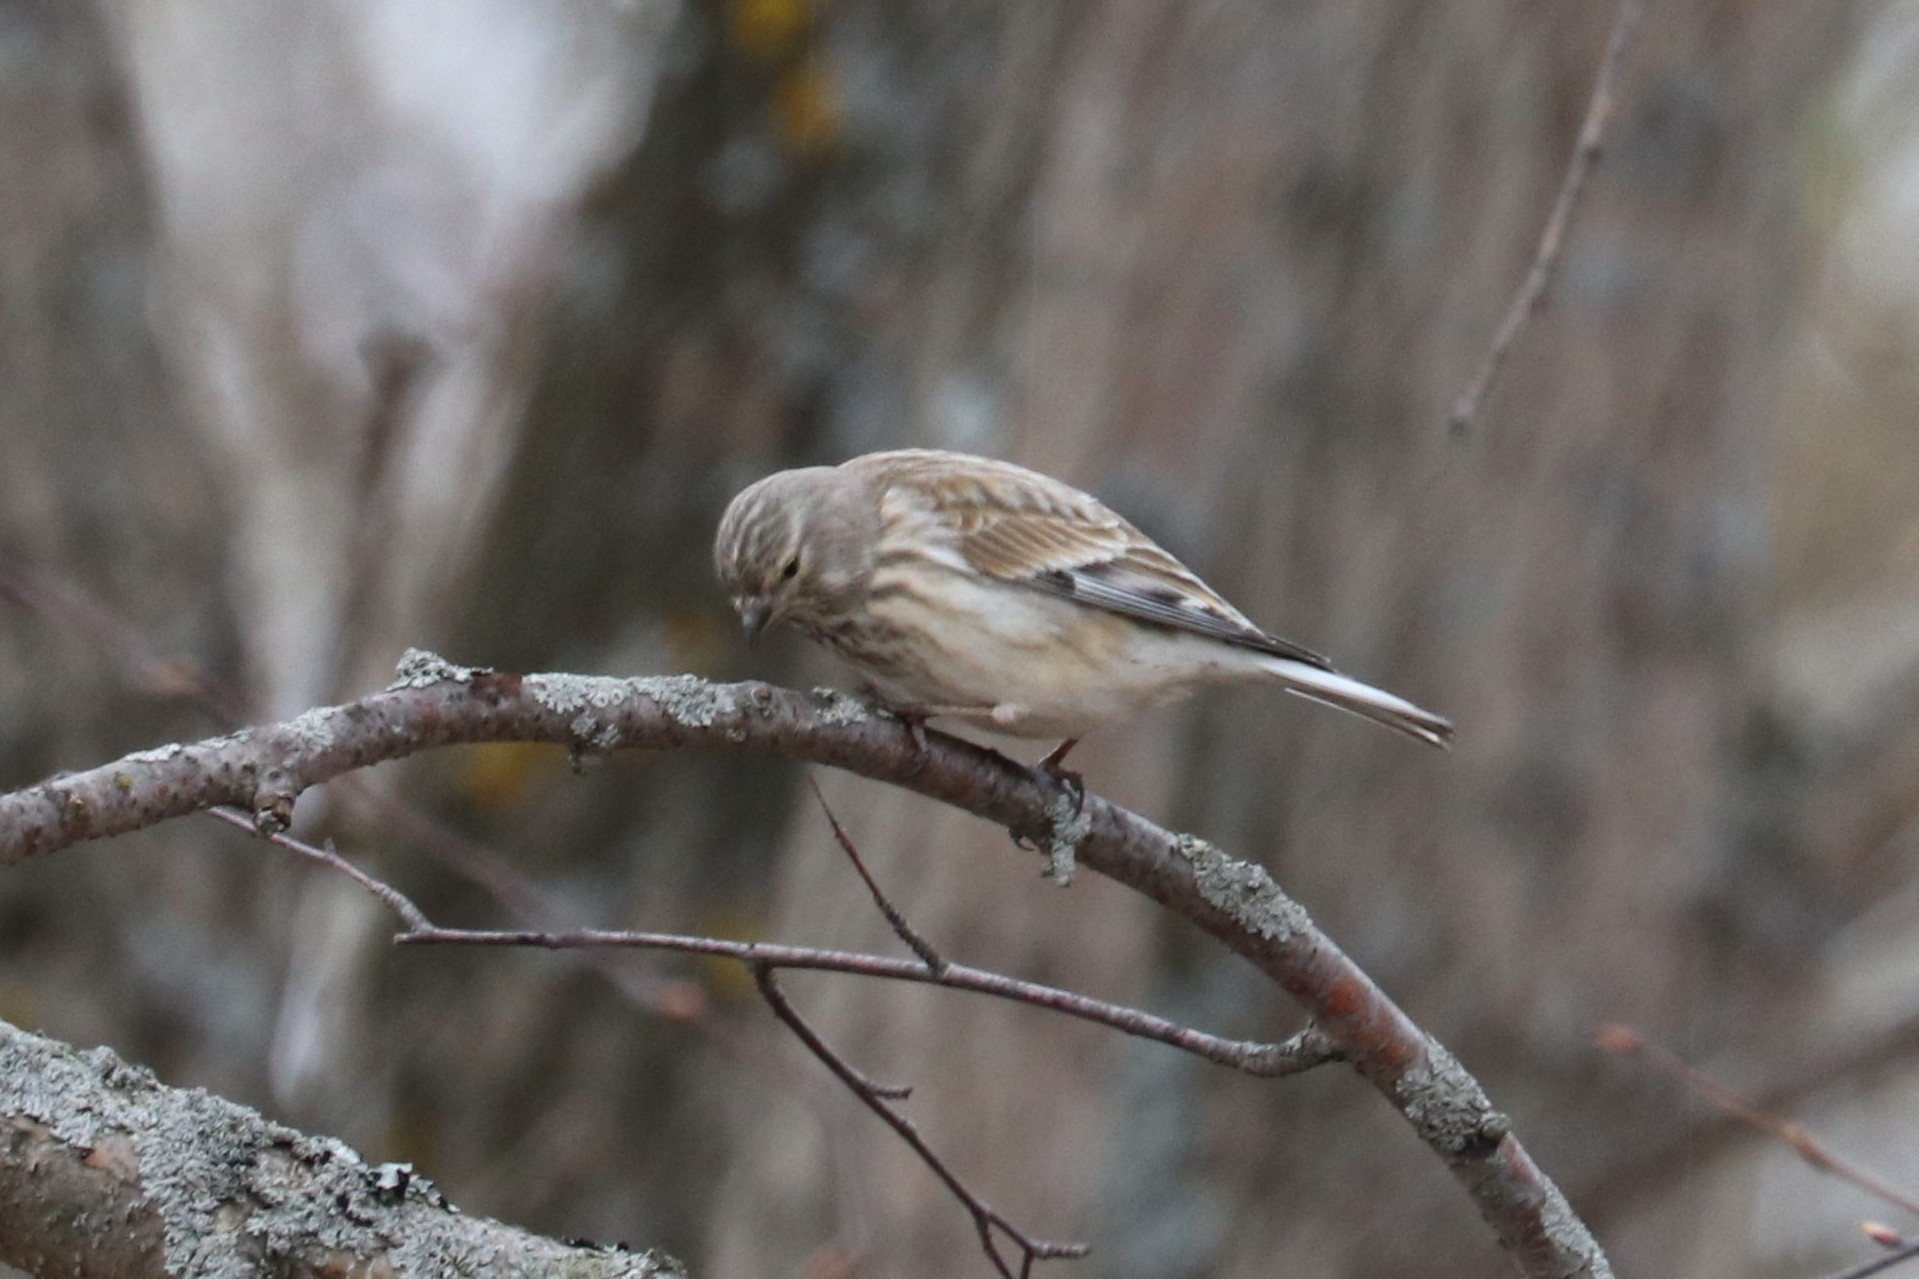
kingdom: Animalia
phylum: Chordata
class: Aves
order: Passeriformes
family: Fringillidae
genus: Linaria
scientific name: Linaria cannabina
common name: Common linnet
